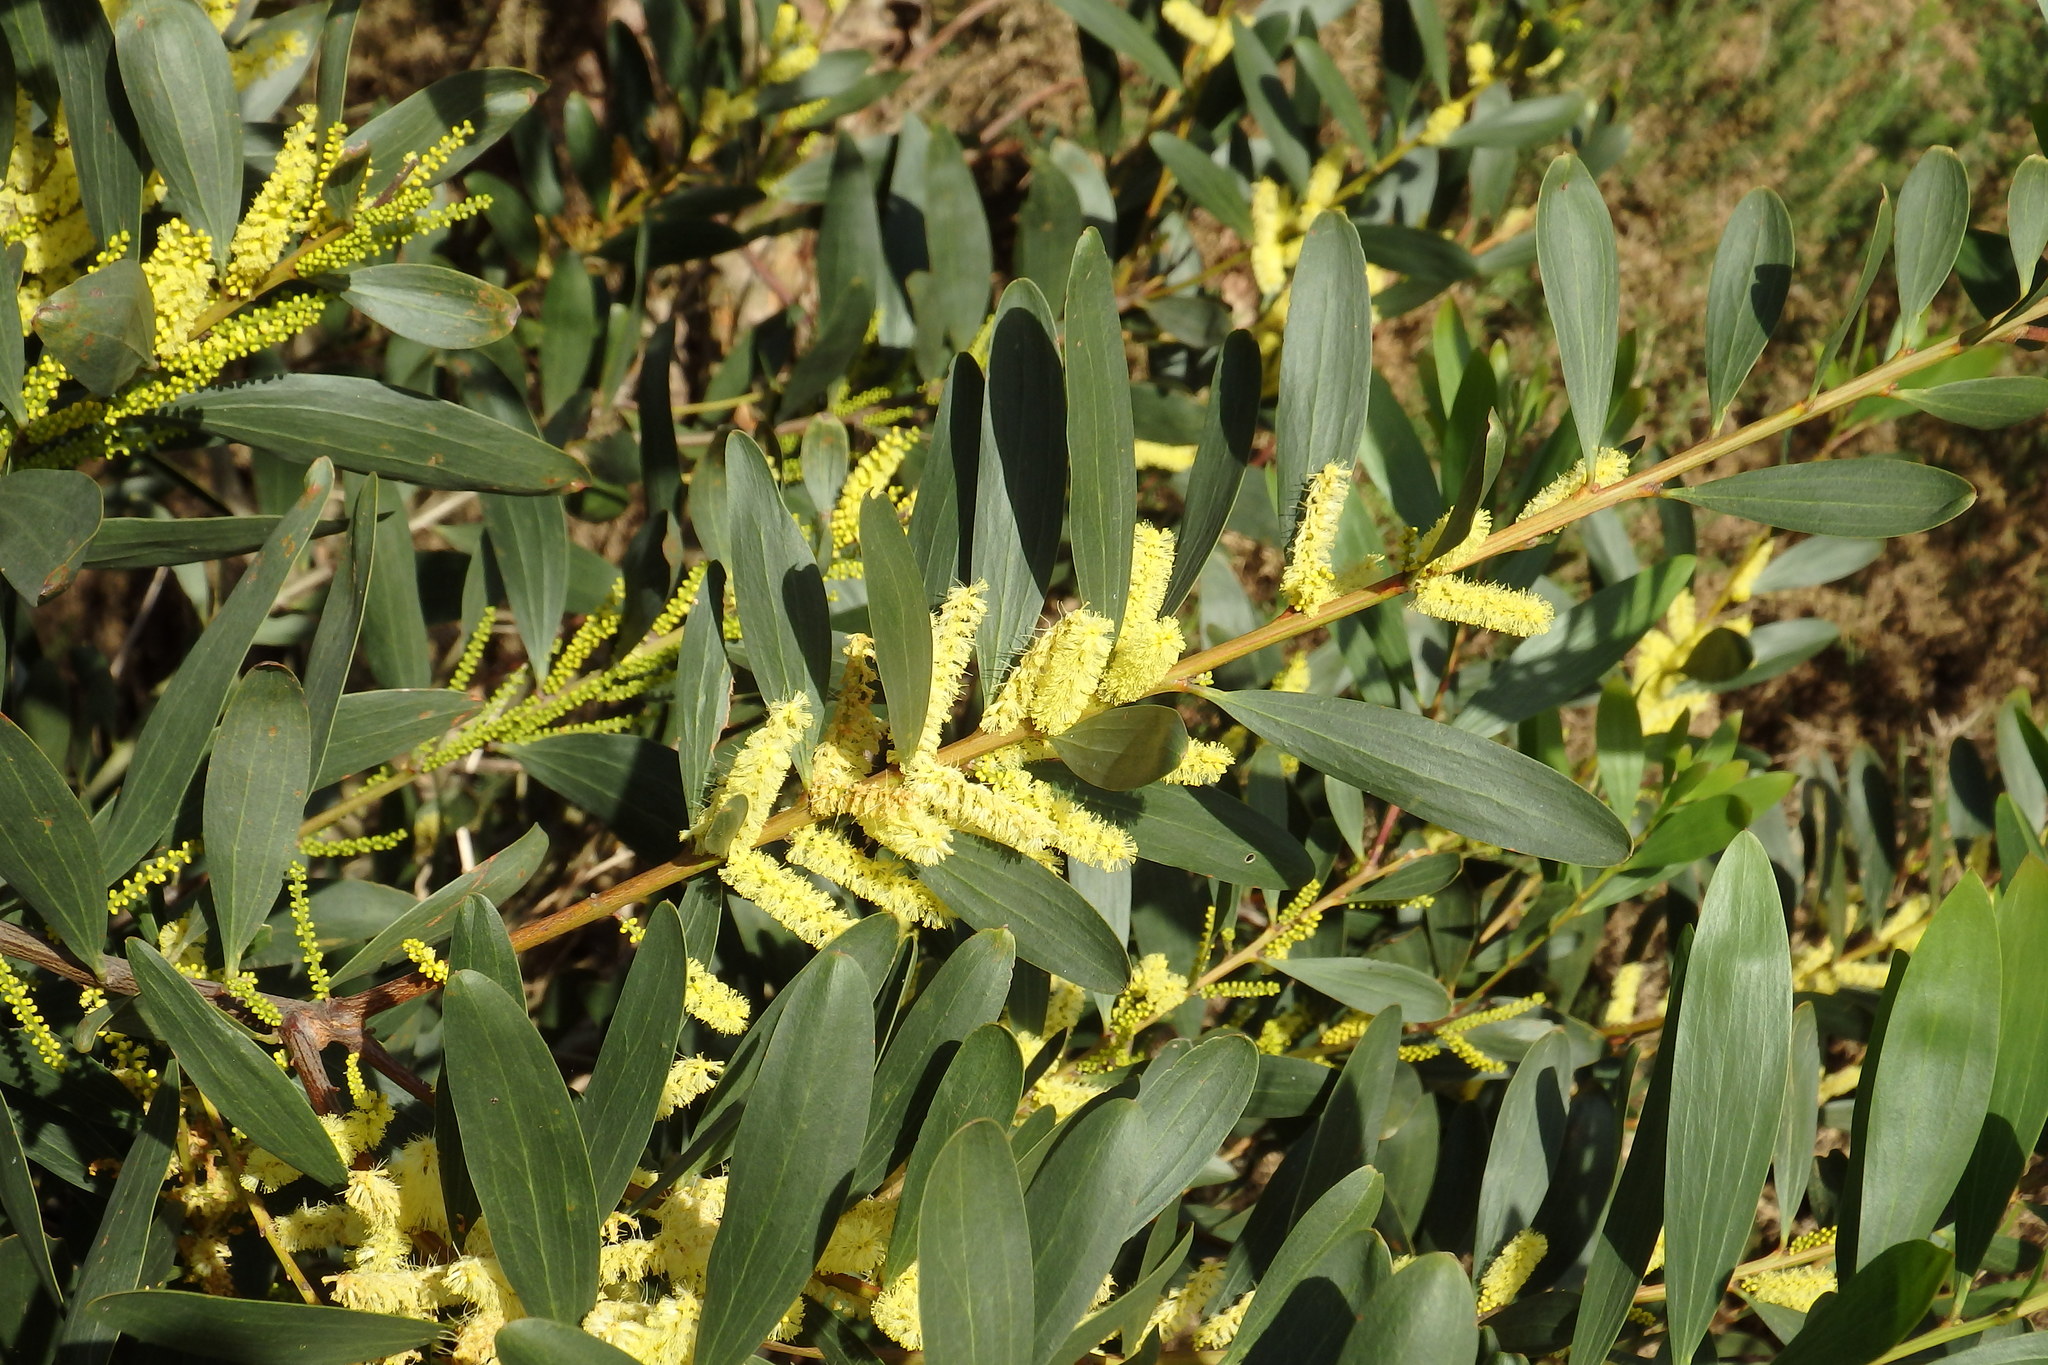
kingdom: Plantae
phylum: Tracheophyta
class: Magnoliopsida
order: Fabales
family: Fabaceae
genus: Acacia
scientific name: Acacia longifolia
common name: Sydney golden wattle
